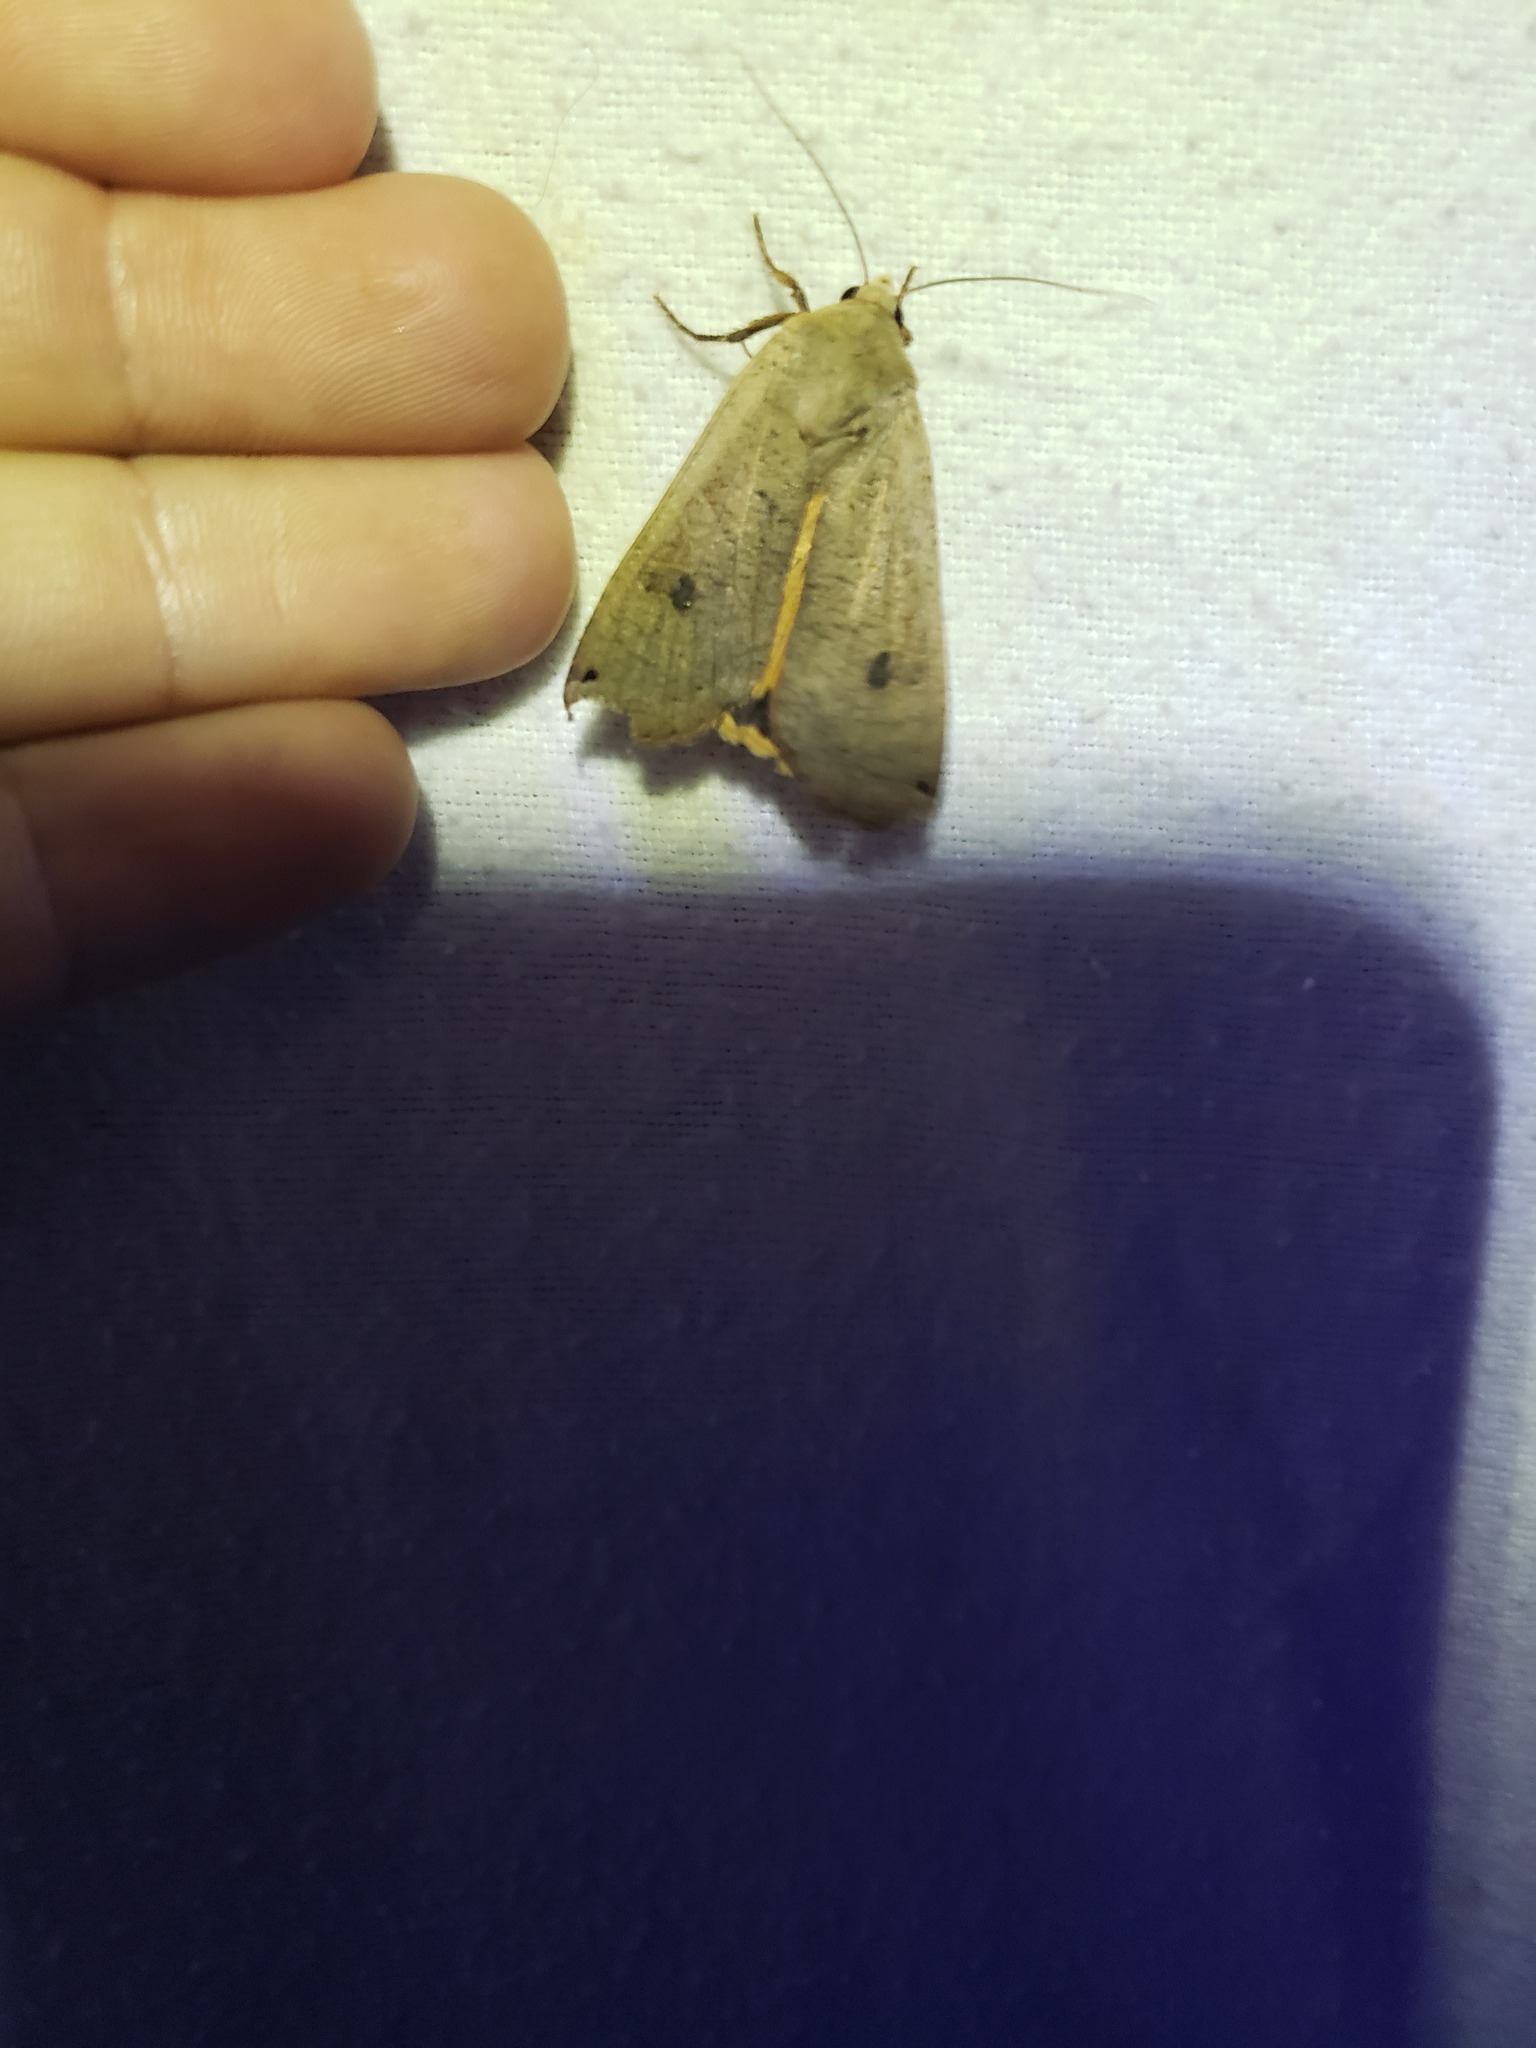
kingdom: Animalia
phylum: Arthropoda
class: Insecta
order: Lepidoptera
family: Noctuidae
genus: Noctua
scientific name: Noctua pronuba
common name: Large yellow underwing
